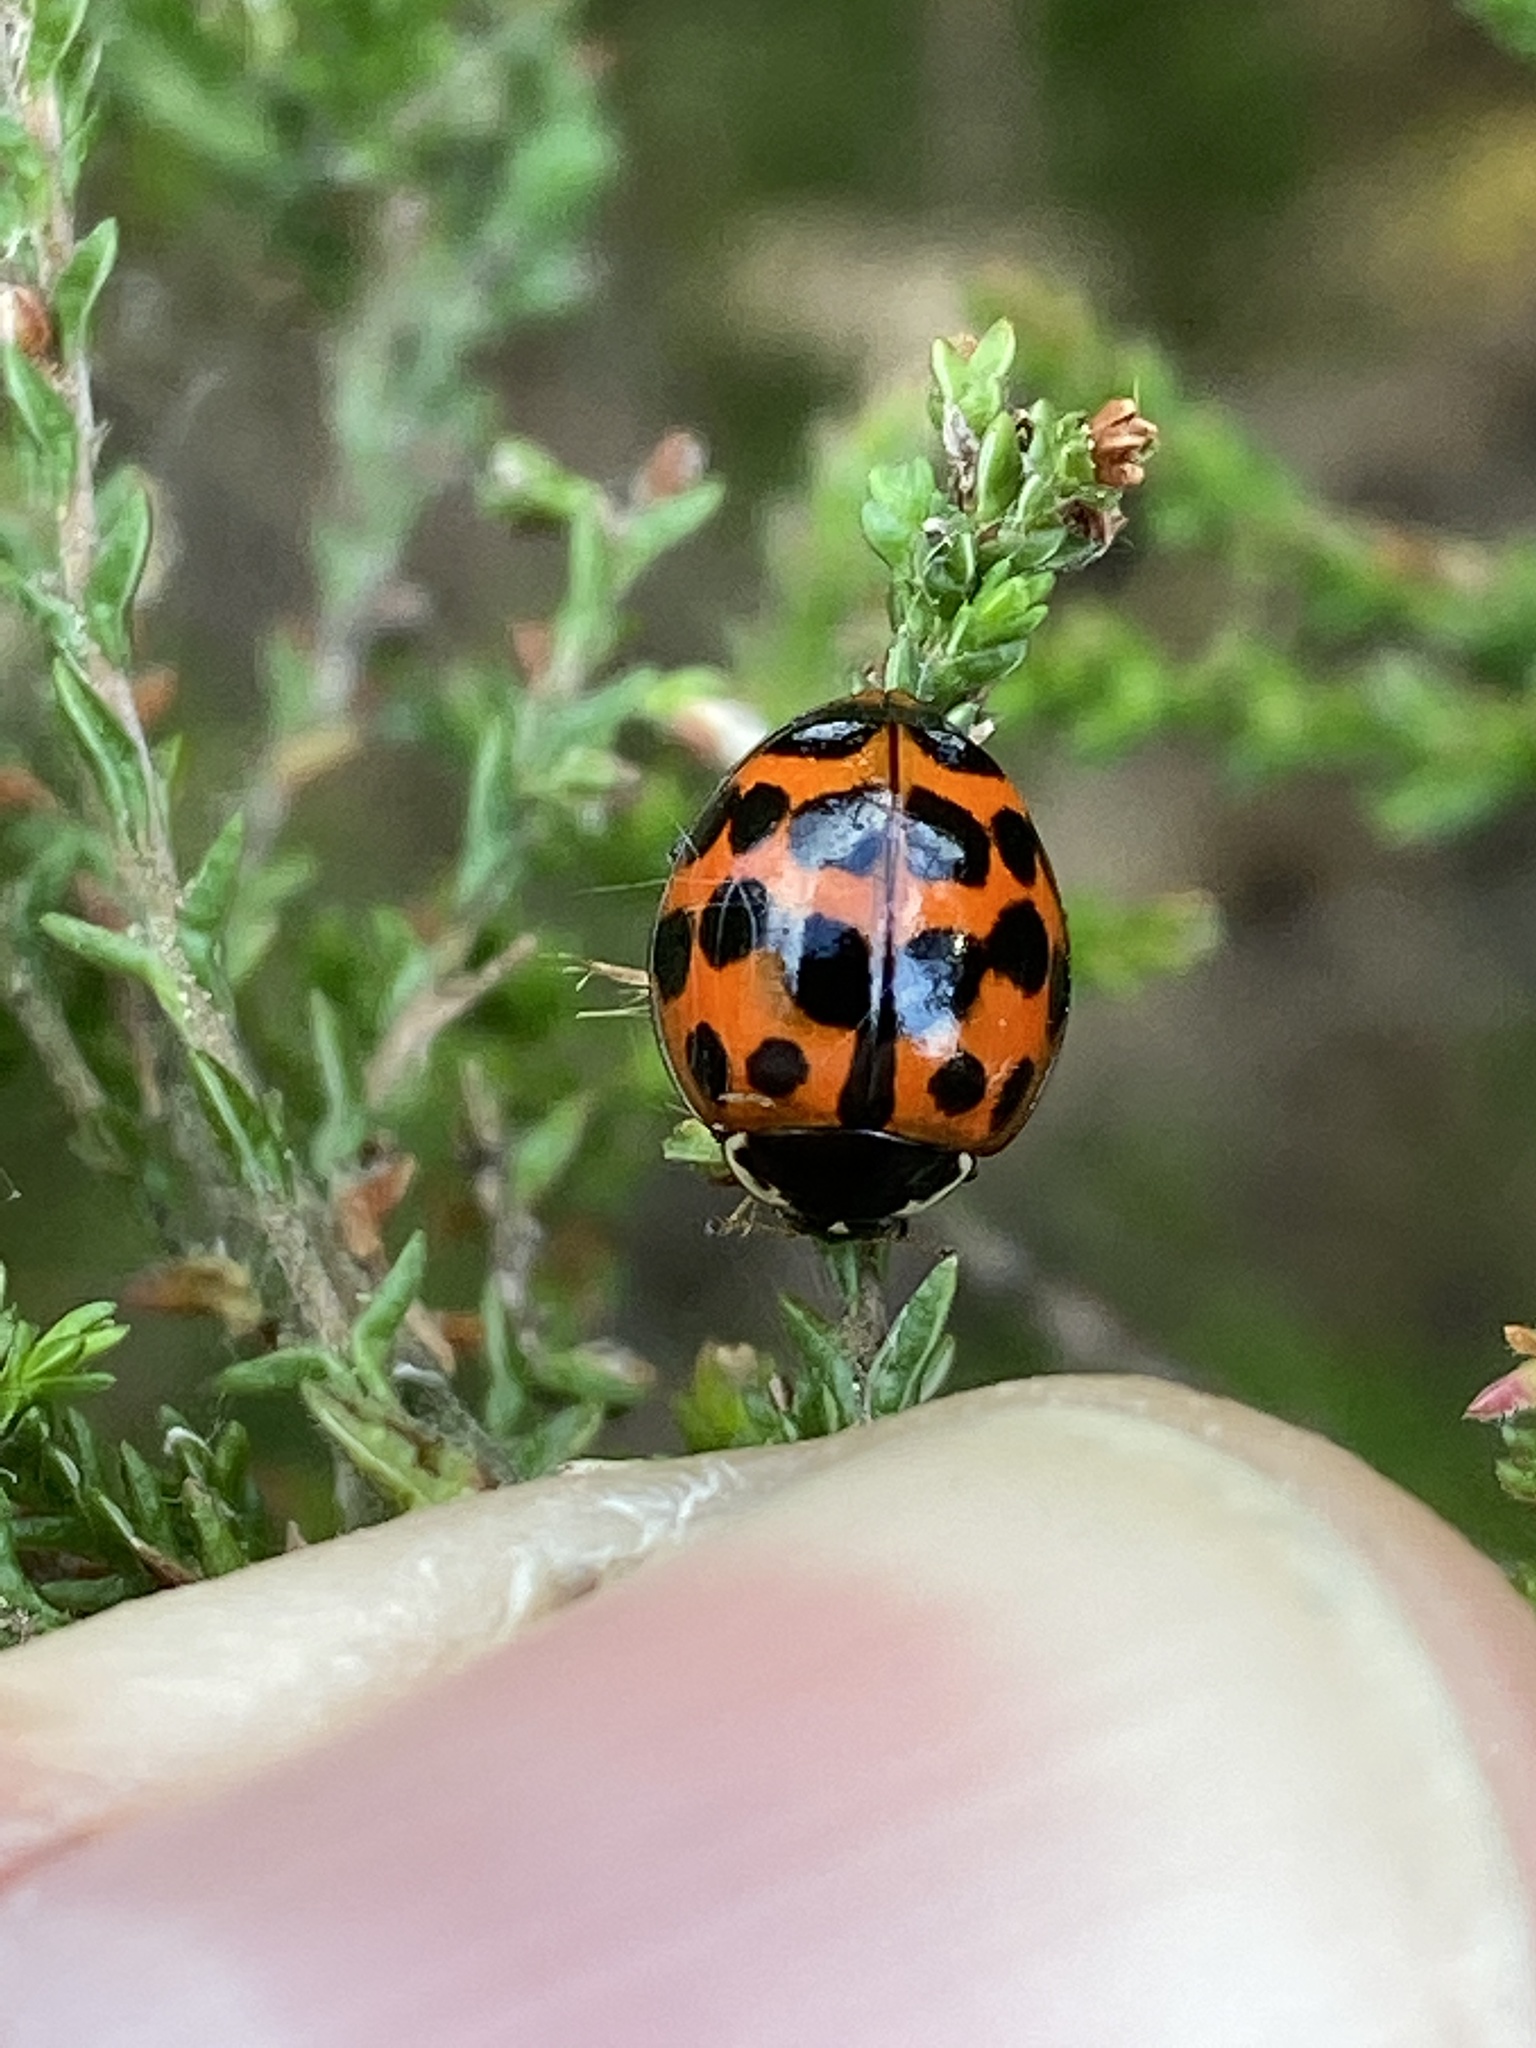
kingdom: Animalia
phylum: Arthropoda
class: Insecta
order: Coleoptera
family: Coccinellidae
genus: Harmonia
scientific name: Harmonia axyridis
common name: Harlequin ladybird
